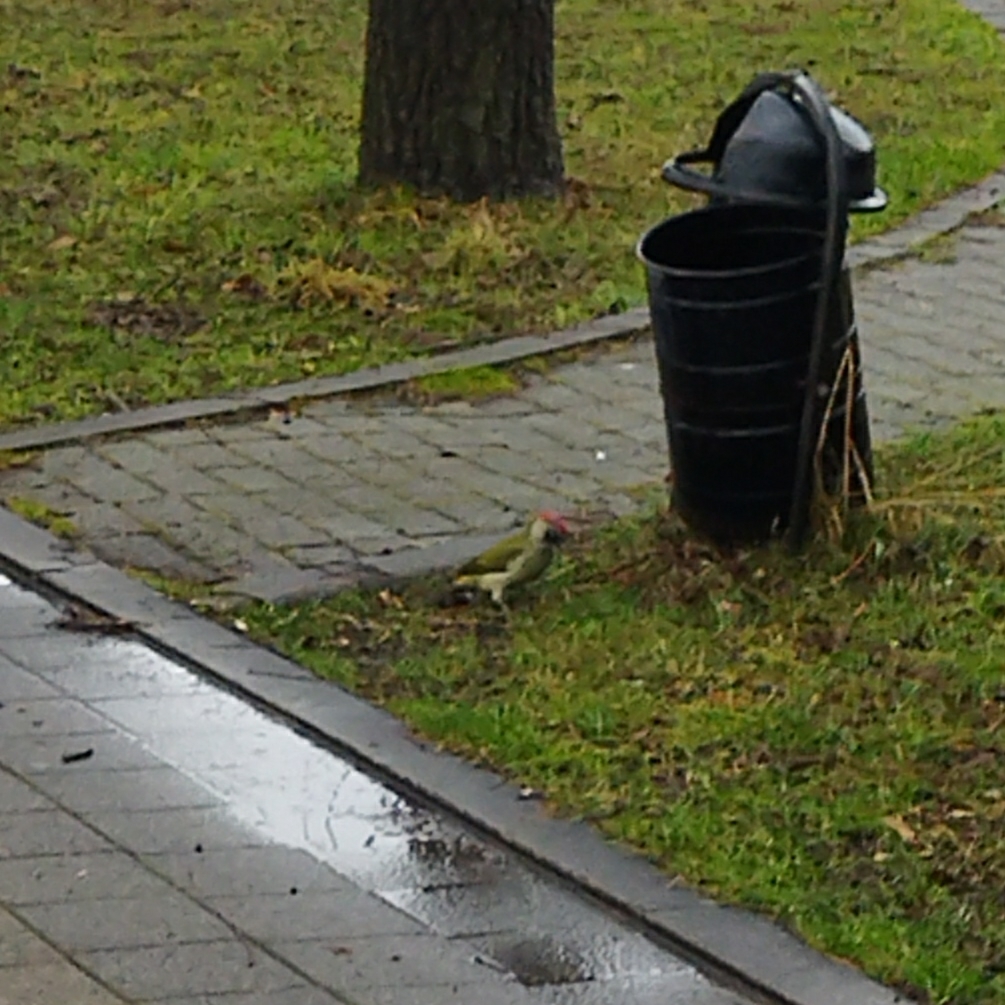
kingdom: Animalia
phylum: Chordata
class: Aves
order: Piciformes
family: Picidae
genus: Picus
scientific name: Picus viridis
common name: European green woodpecker
